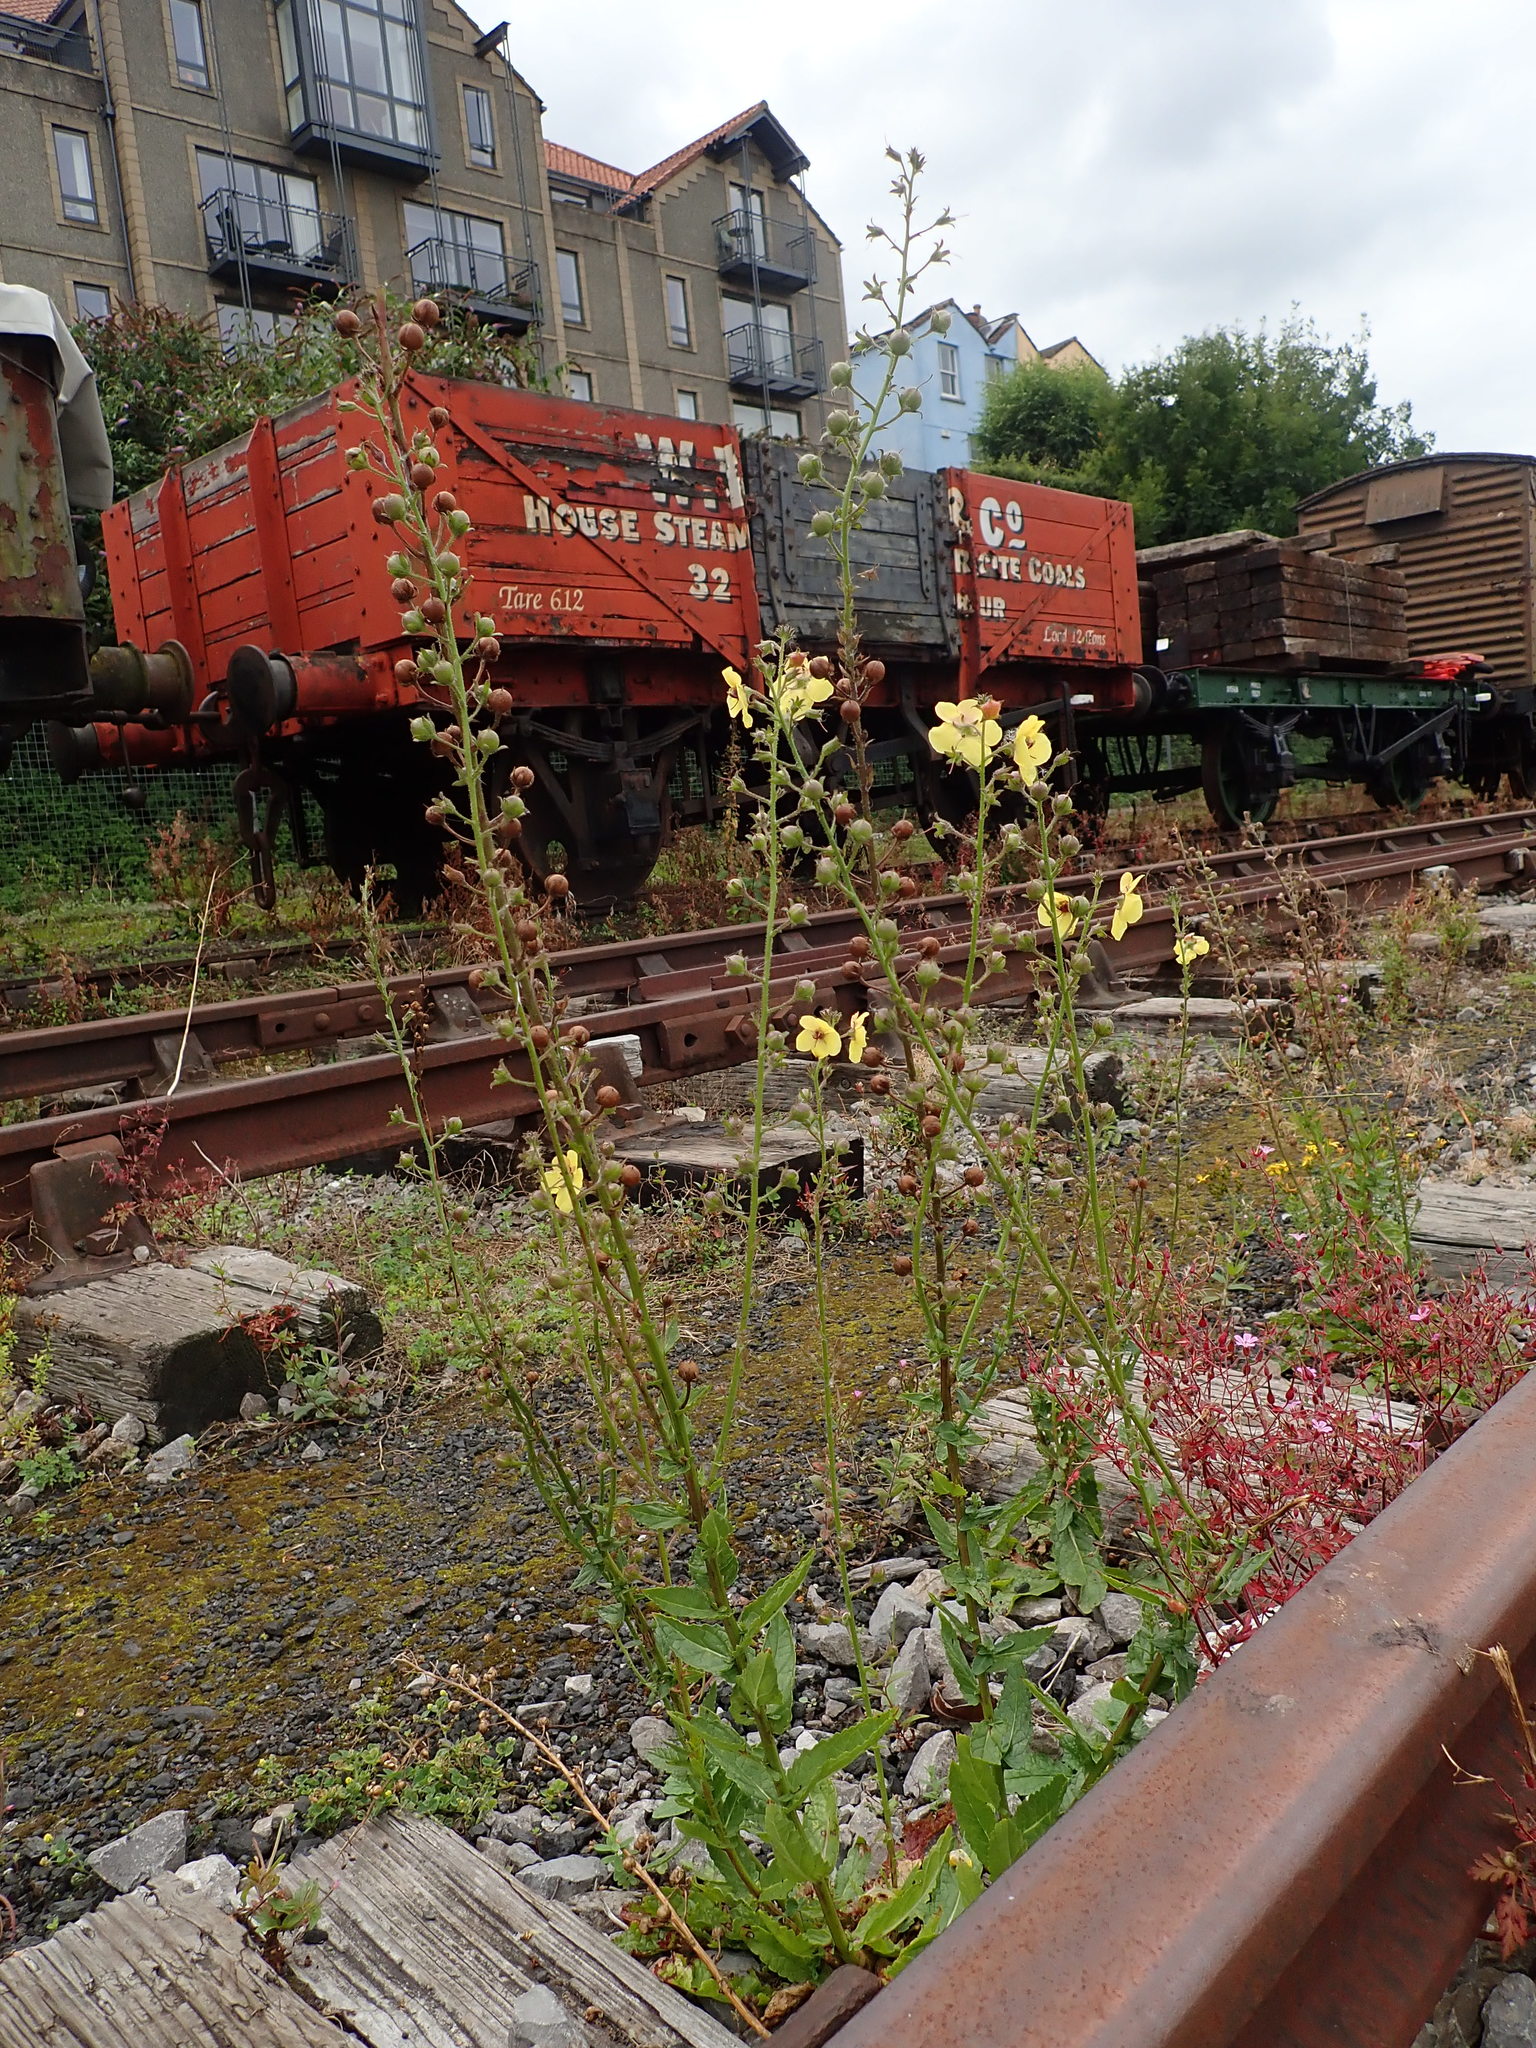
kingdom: Plantae
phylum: Tracheophyta
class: Magnoliopsida
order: Lamiales
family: Scrophulariaceae
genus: Verbascum
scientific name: Verbascum blattaria
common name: Moth mullein
